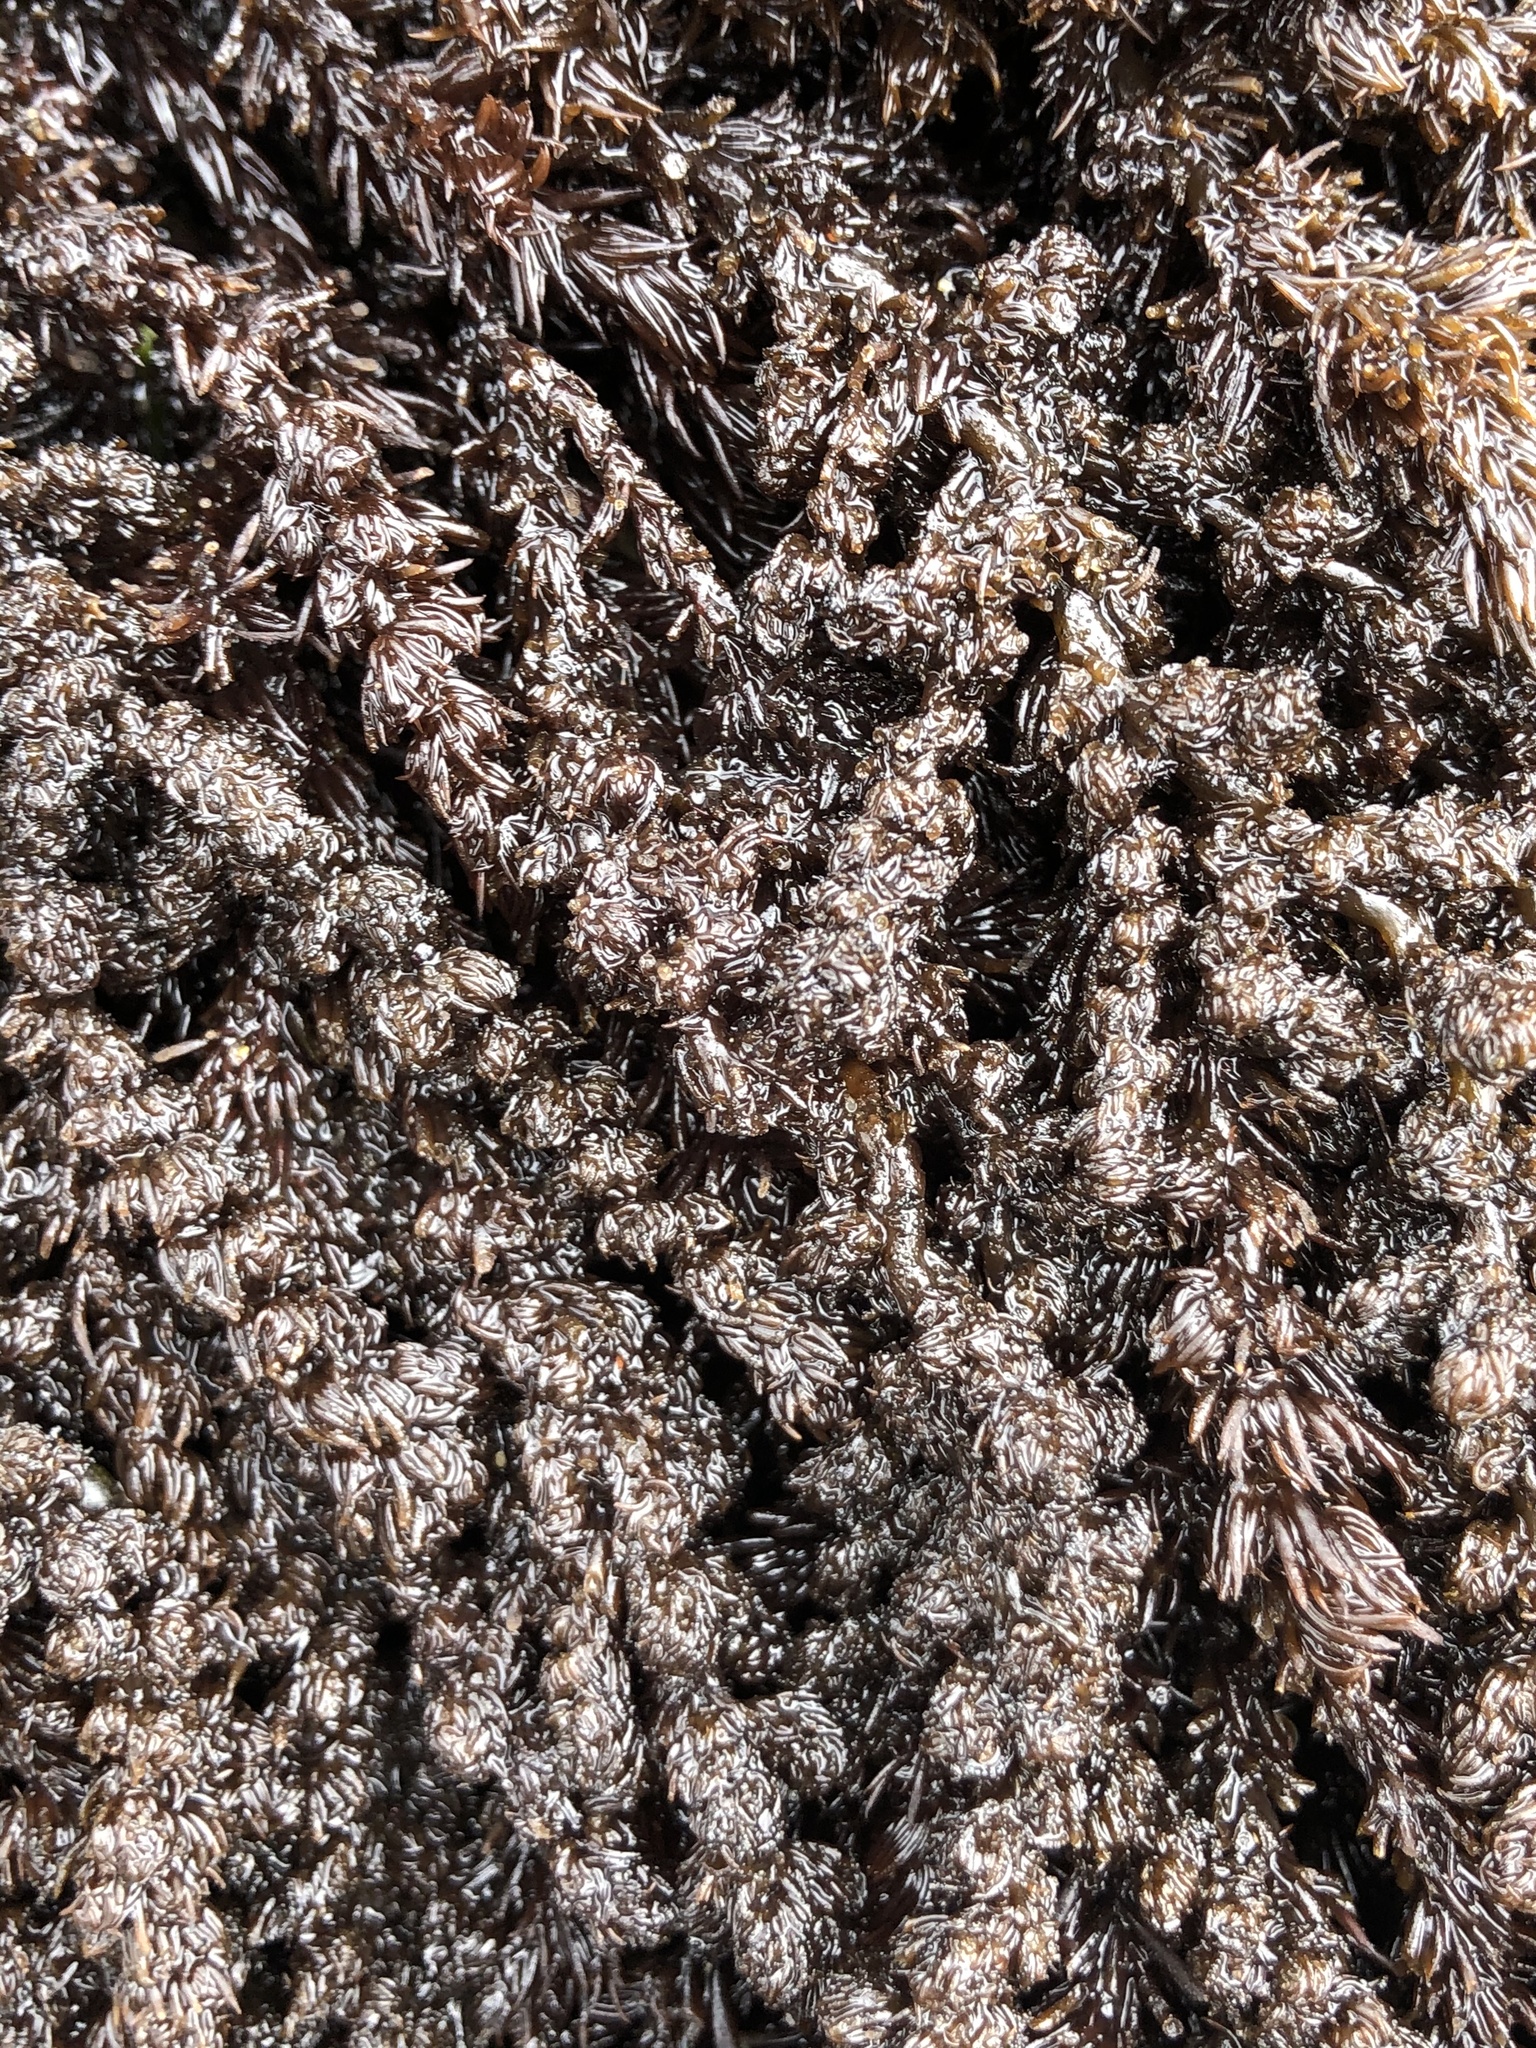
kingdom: Plantae
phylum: Rhodophyta
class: Florideophyceae
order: Ceramiales
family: Rhodomelaceae
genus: Neorhodomela
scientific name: Neorhodomela larix
